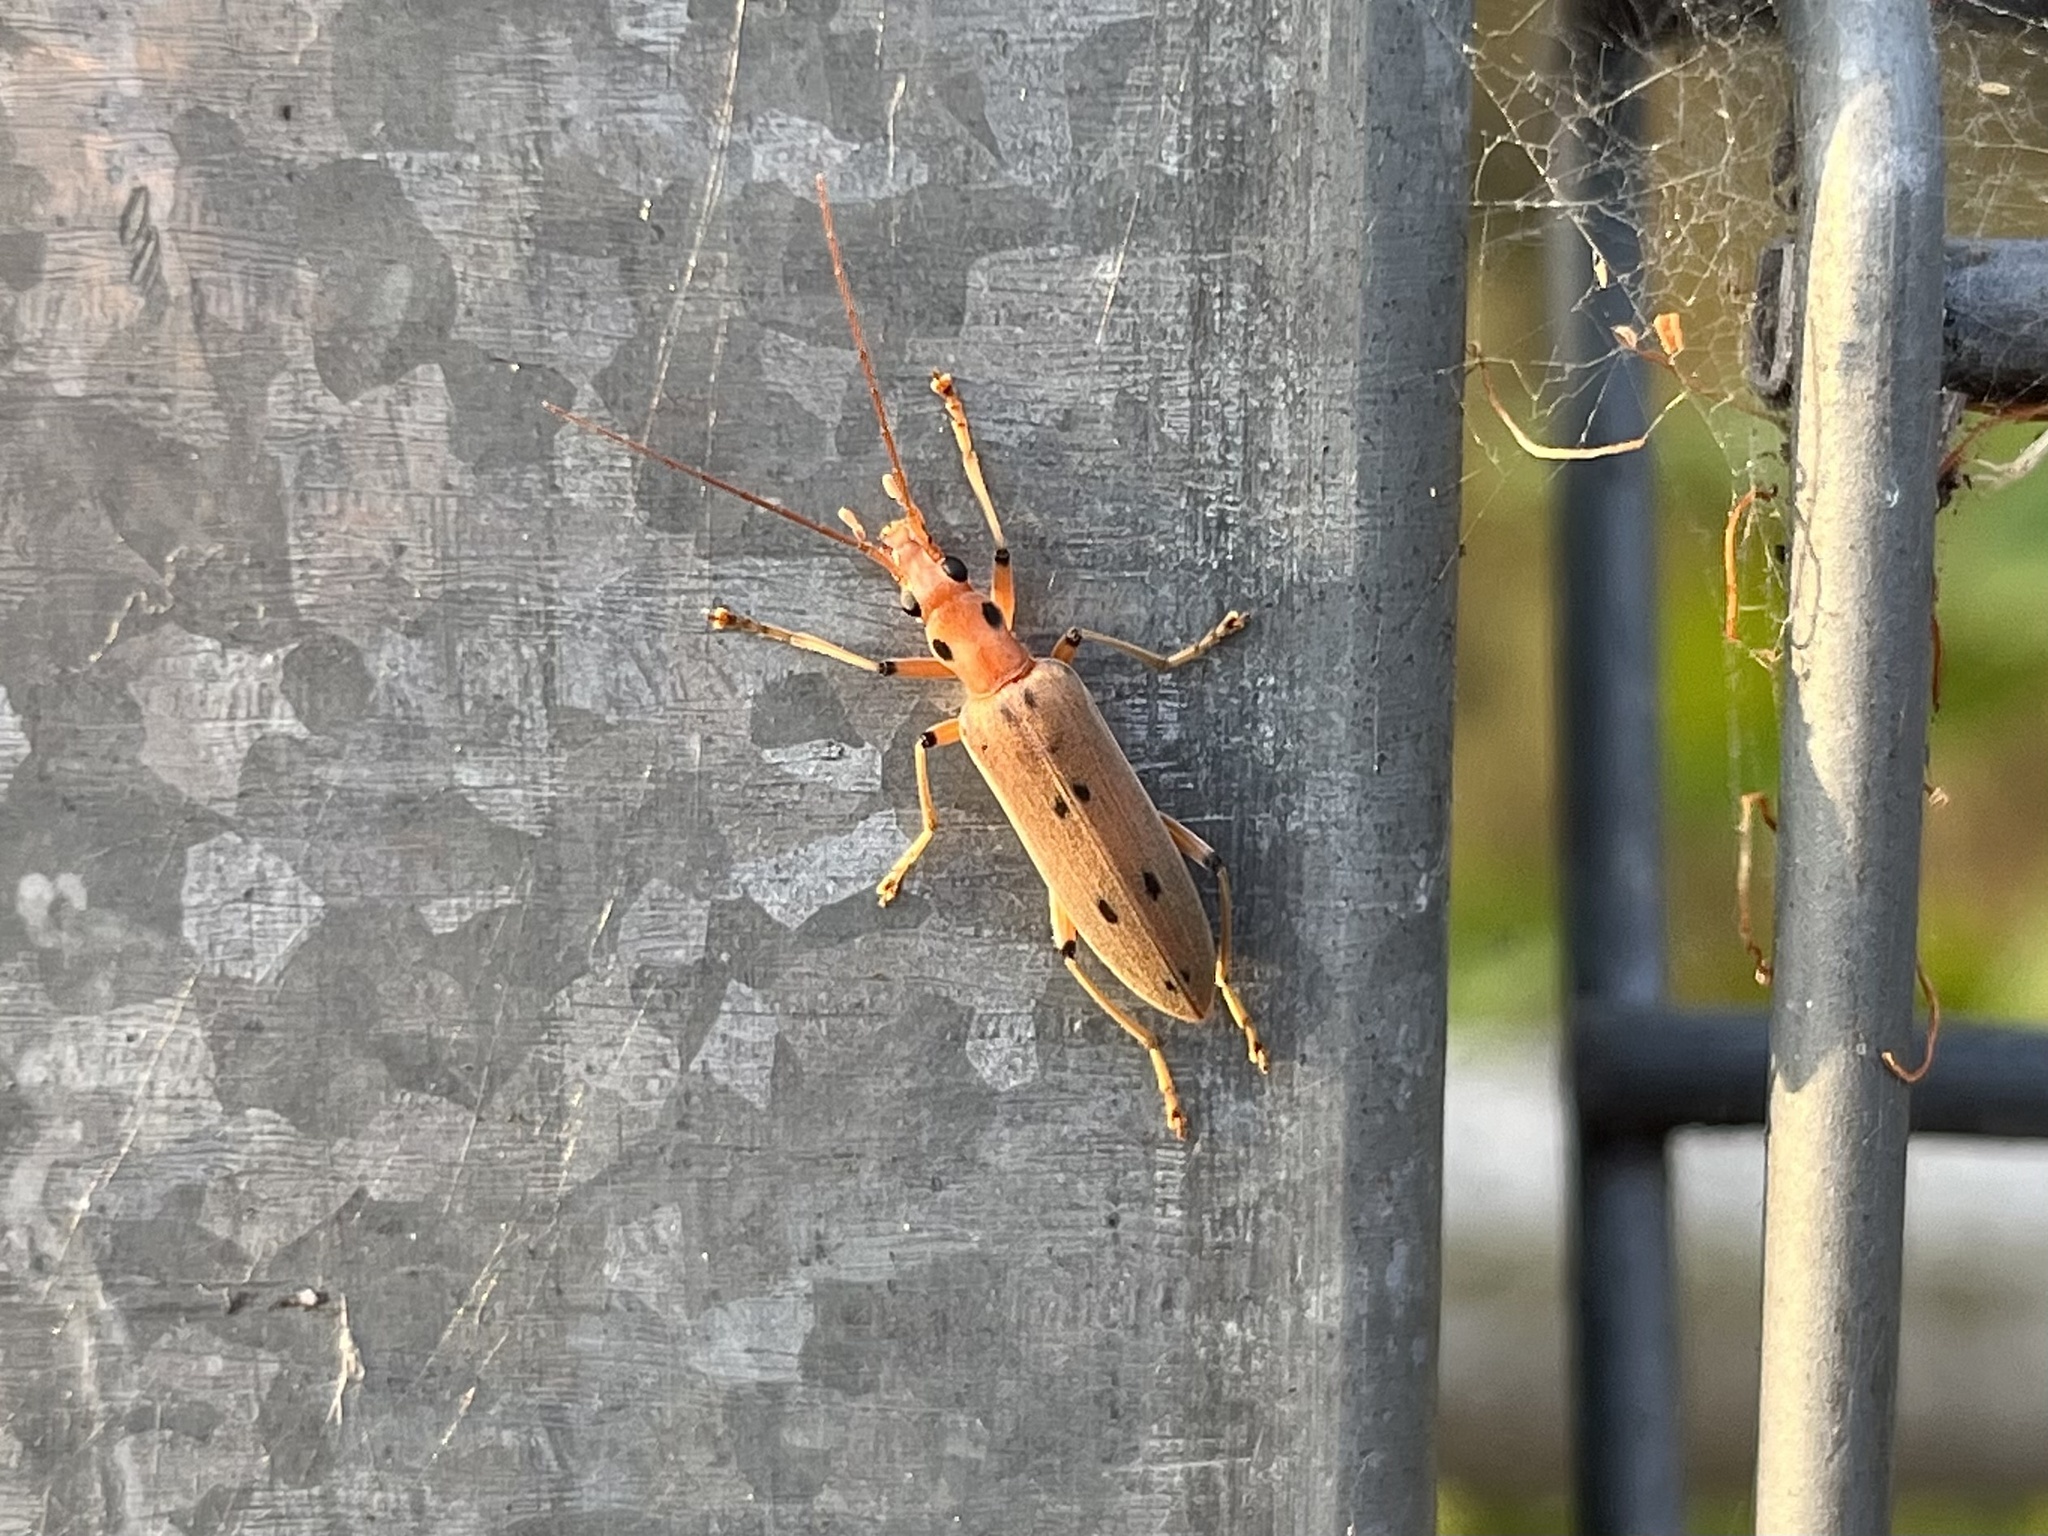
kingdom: Animalia
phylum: Arthropoda
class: Insecta
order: Coleoptera
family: Oedemeridae
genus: Parisopalpus
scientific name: Parisopalpus
